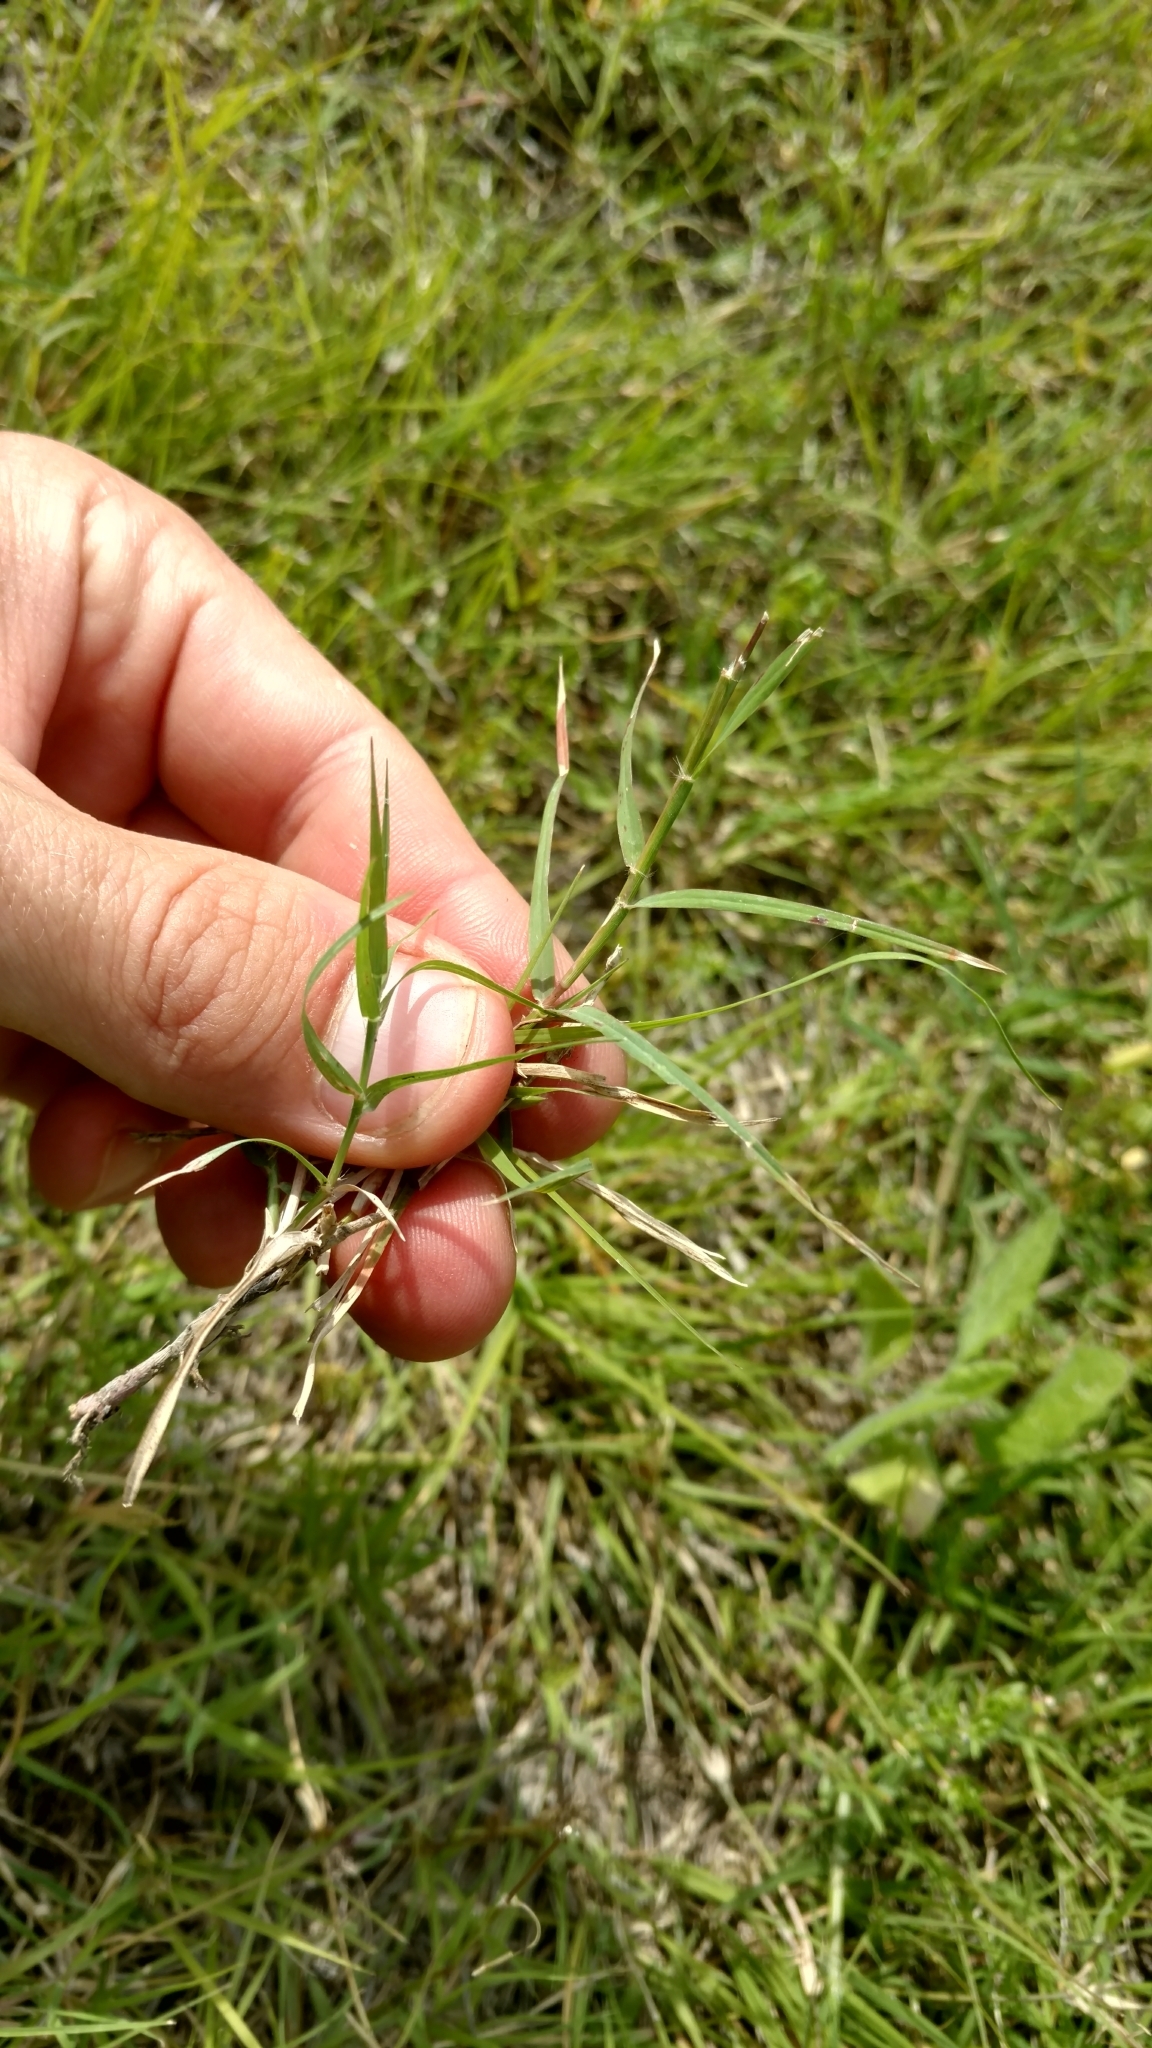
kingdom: Plantae
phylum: Tracheophyta
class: Liliopsida
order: Poales
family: Poaceae
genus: Cynodon
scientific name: Cynodon dactylon
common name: Bermuda grass
